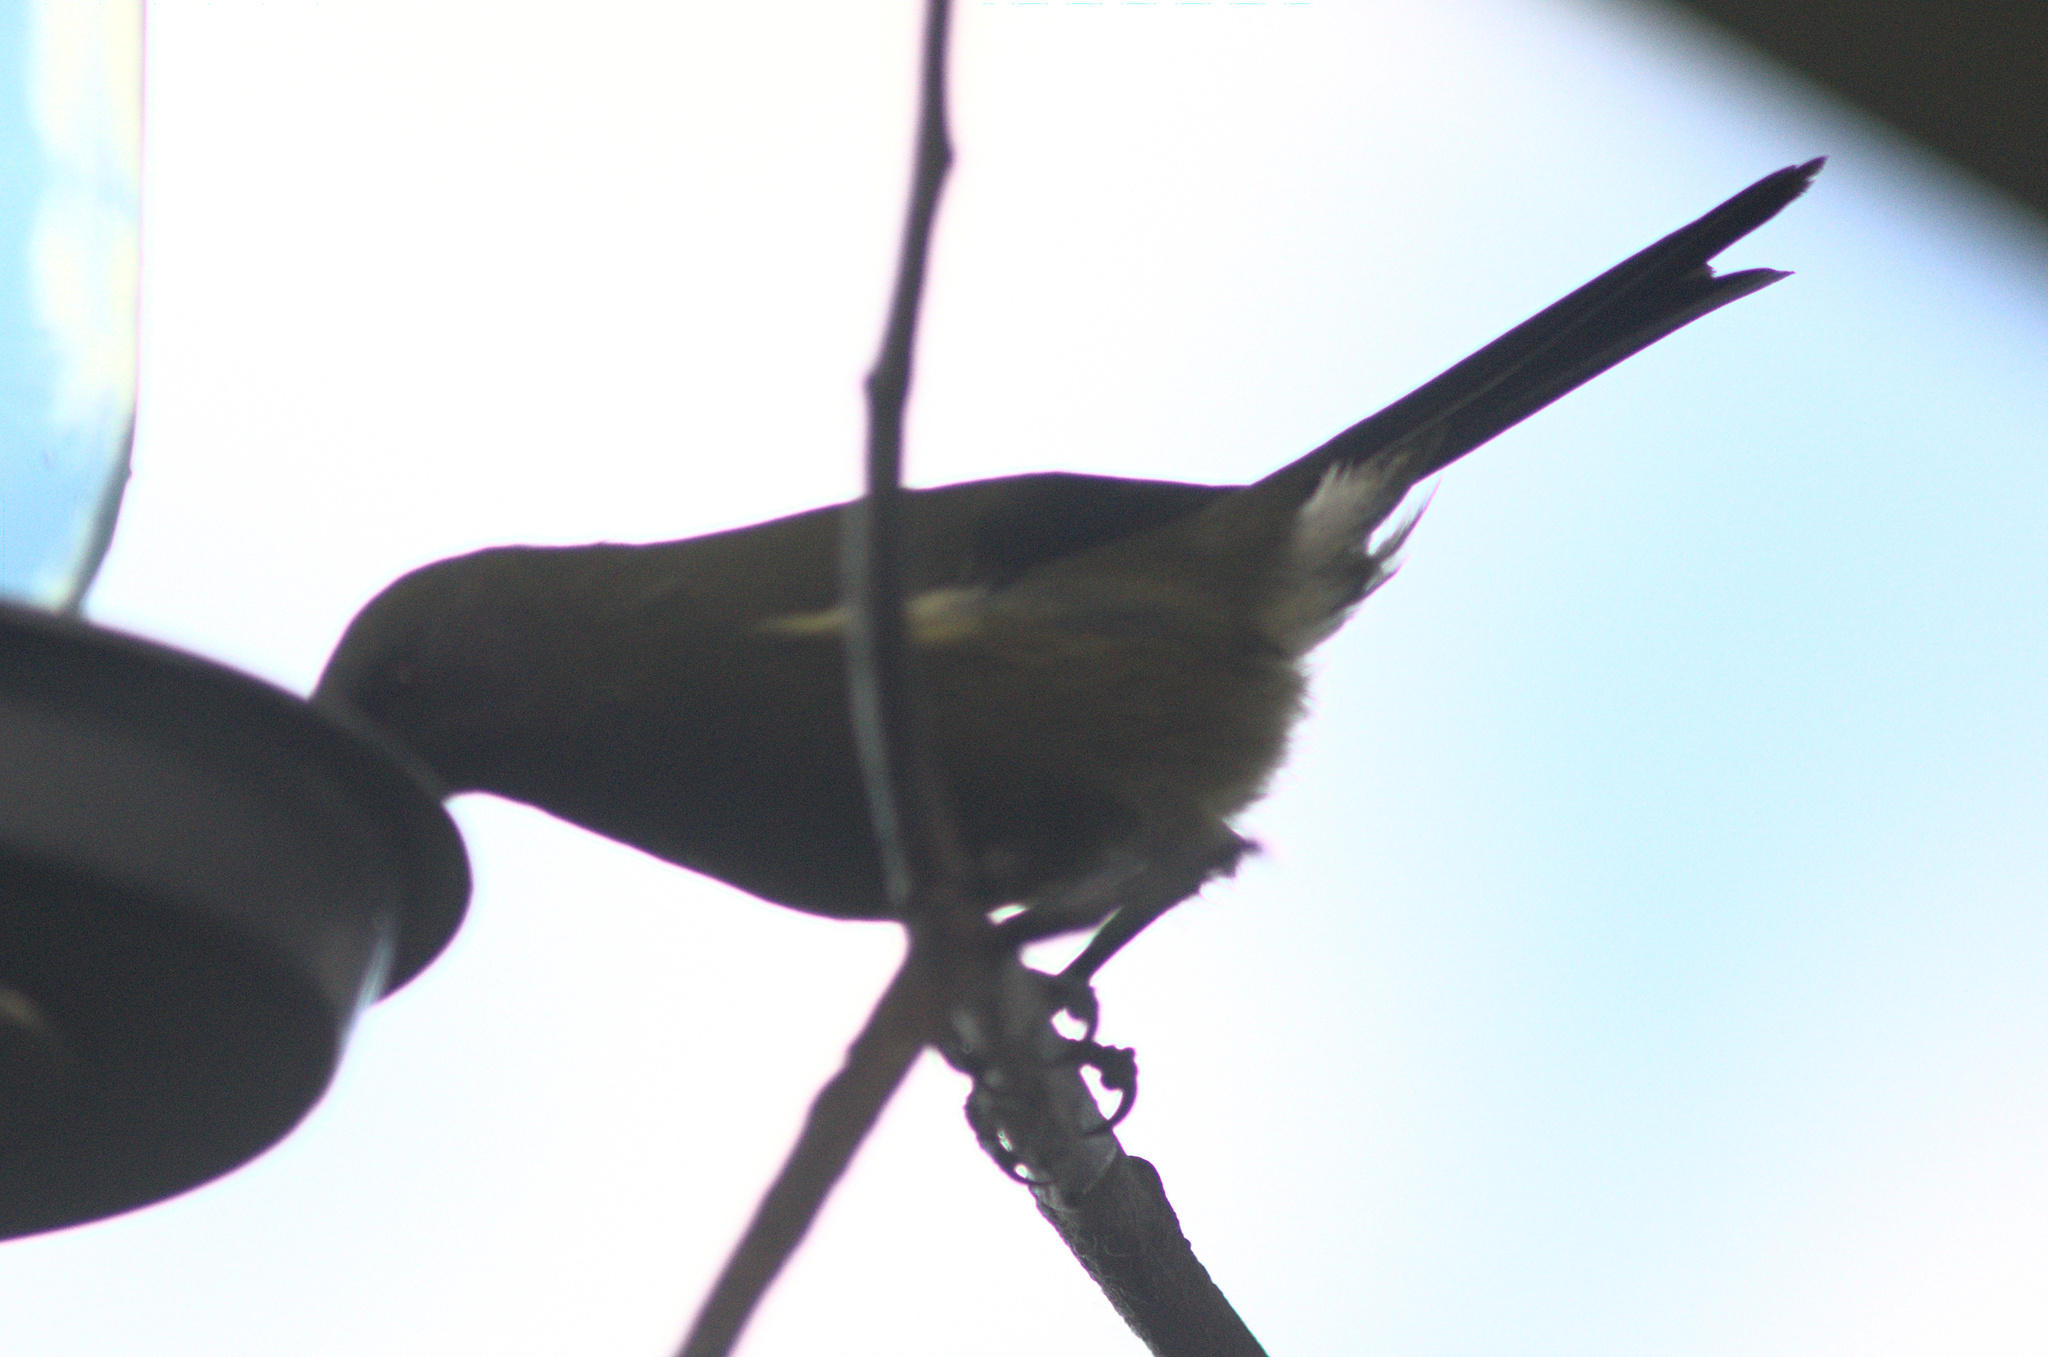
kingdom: Animalia
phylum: Chordata
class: Aves
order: Passeriformes
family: Meliphagidae
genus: Anthornis
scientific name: Anthornis melanura
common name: New zealand bellbird
